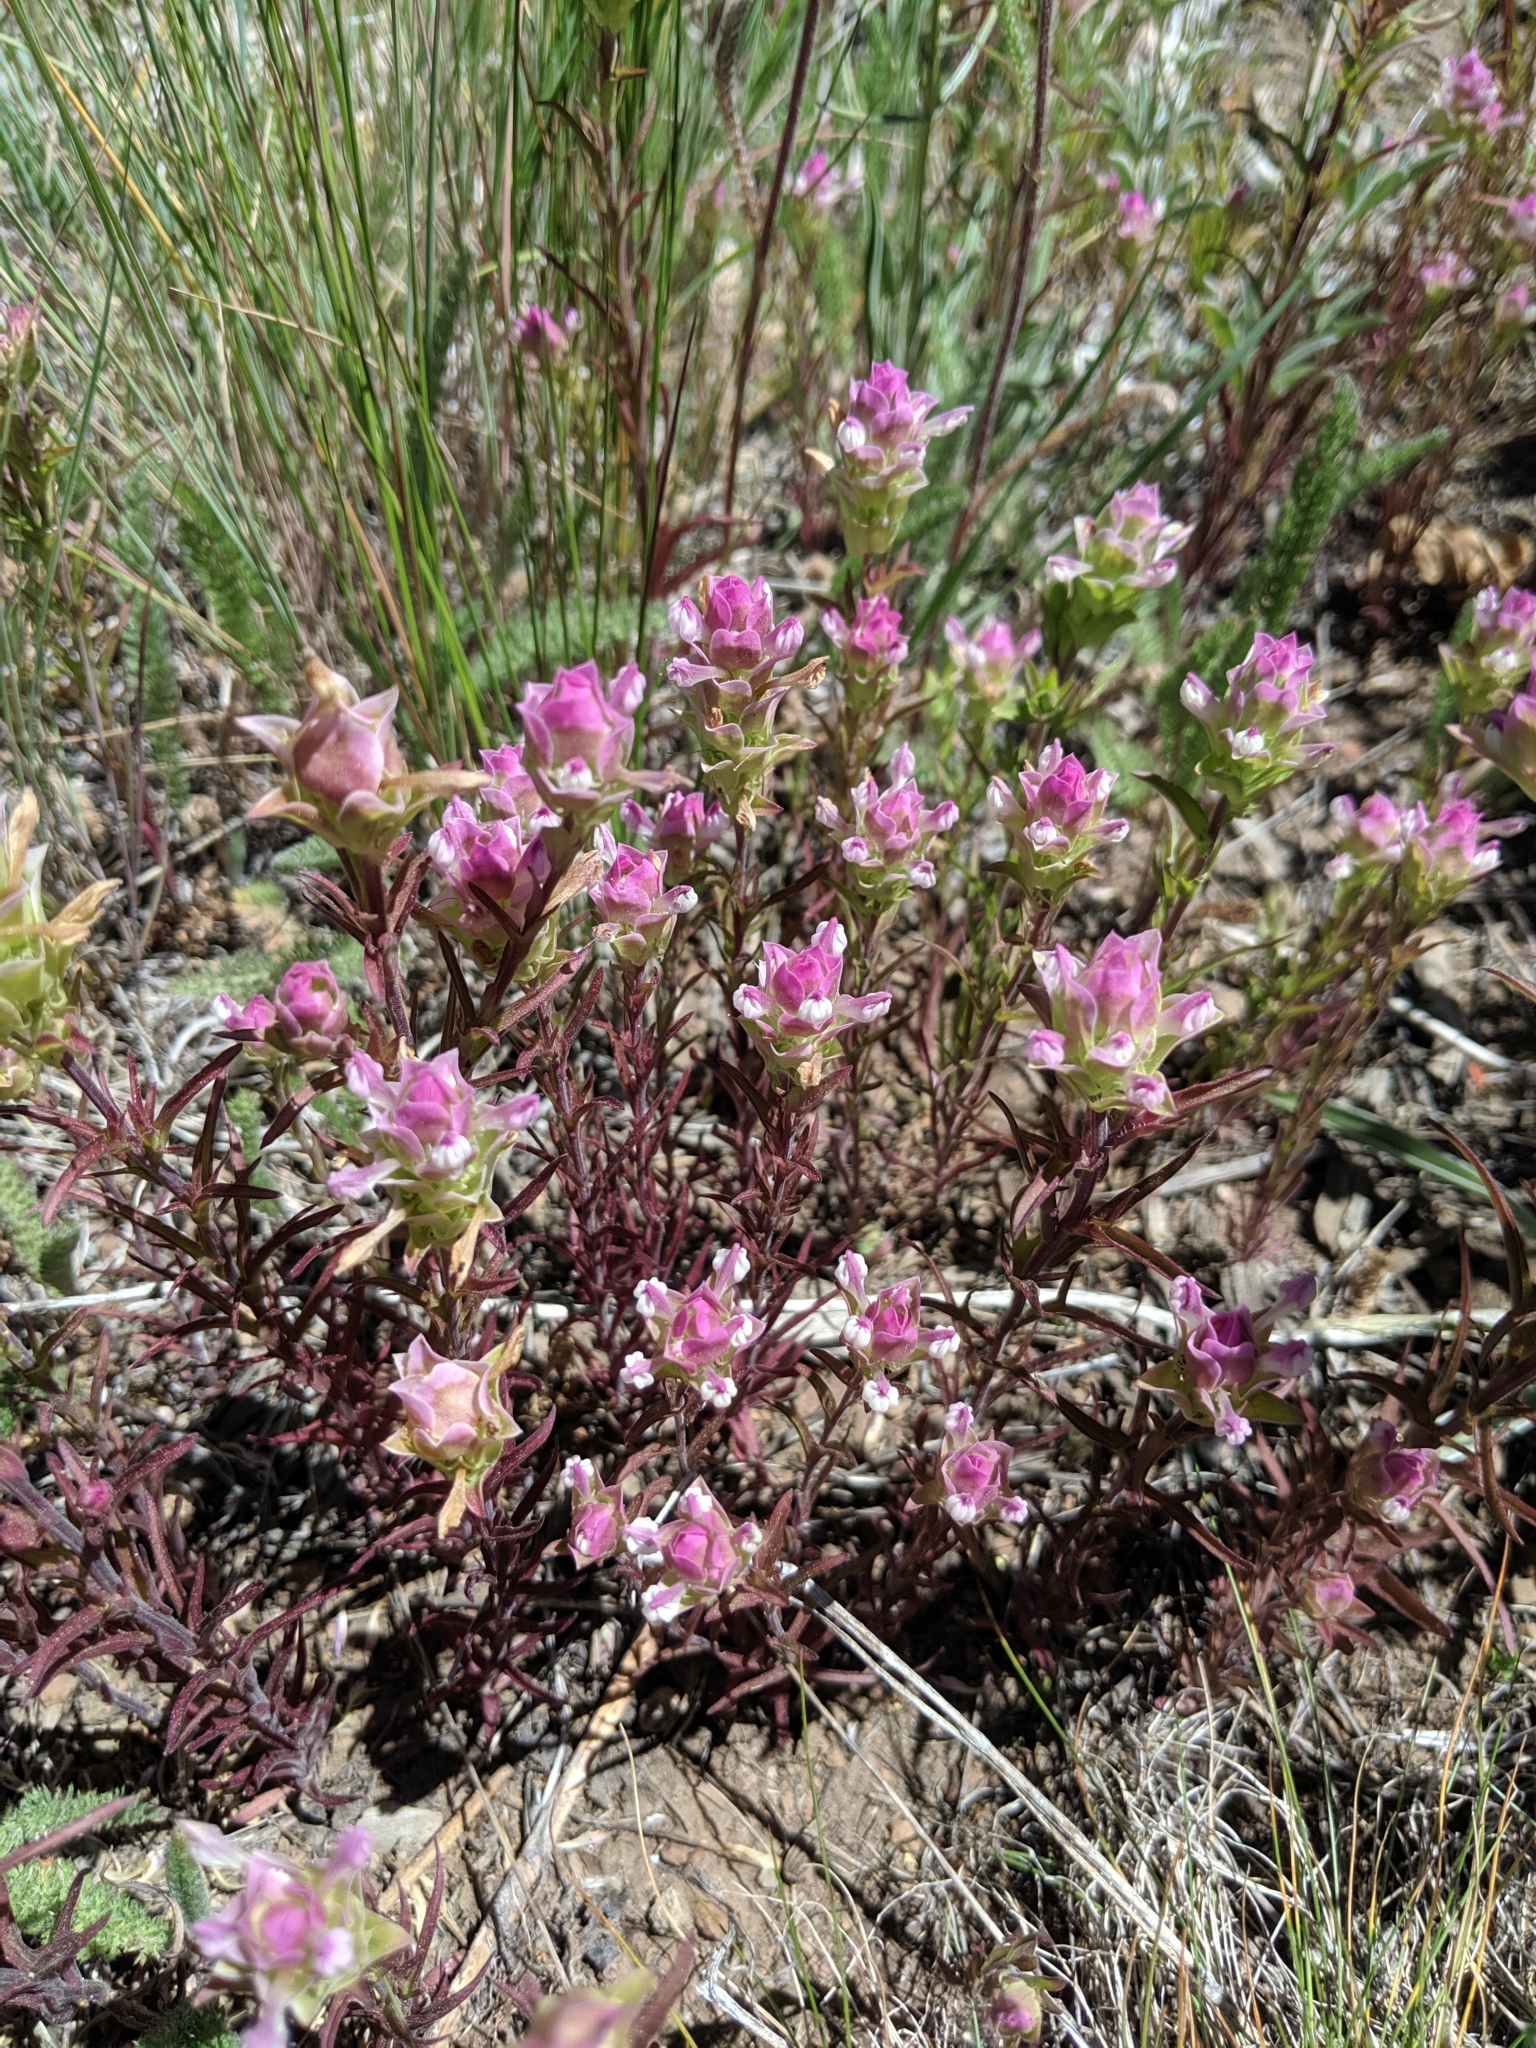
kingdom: Plantae
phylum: Tracheophyta
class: Magnoliopsida
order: Lamiales
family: Orobanchaceae
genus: Orthocarpus
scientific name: Orthocarpus cuspidatus
